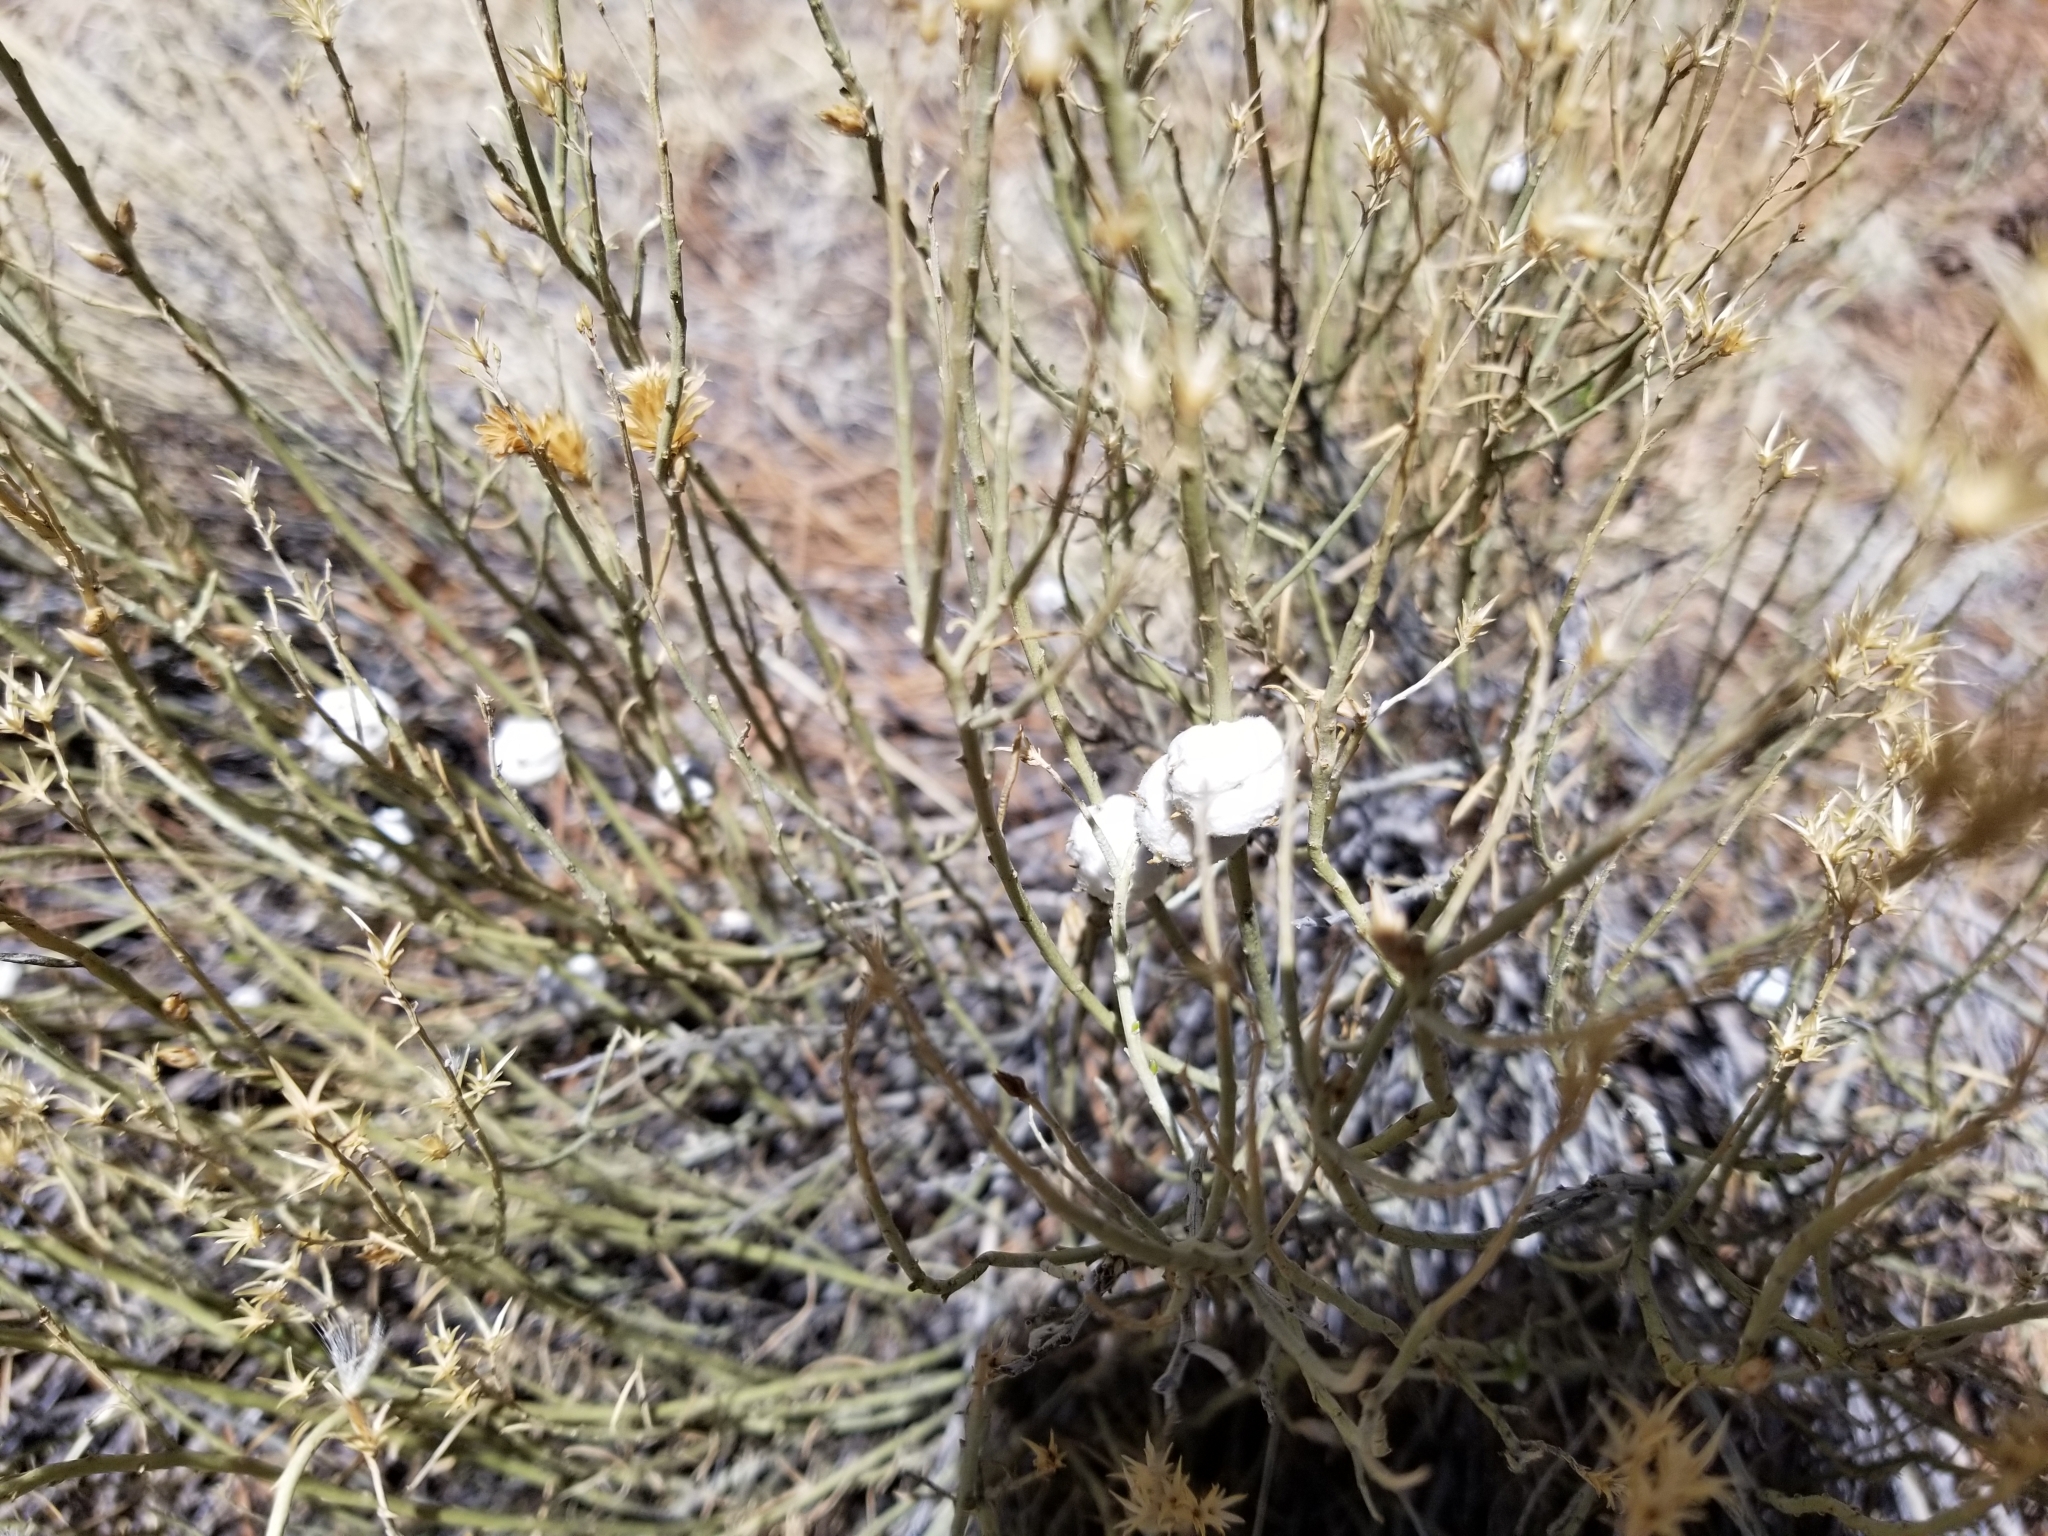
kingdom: Plantae
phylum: Tracheophyta
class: Magnoliopsida
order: Asterales
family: Asteraceae
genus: Ericameria
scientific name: Ericameria nauseosa
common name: Rubber rabbitbrush
